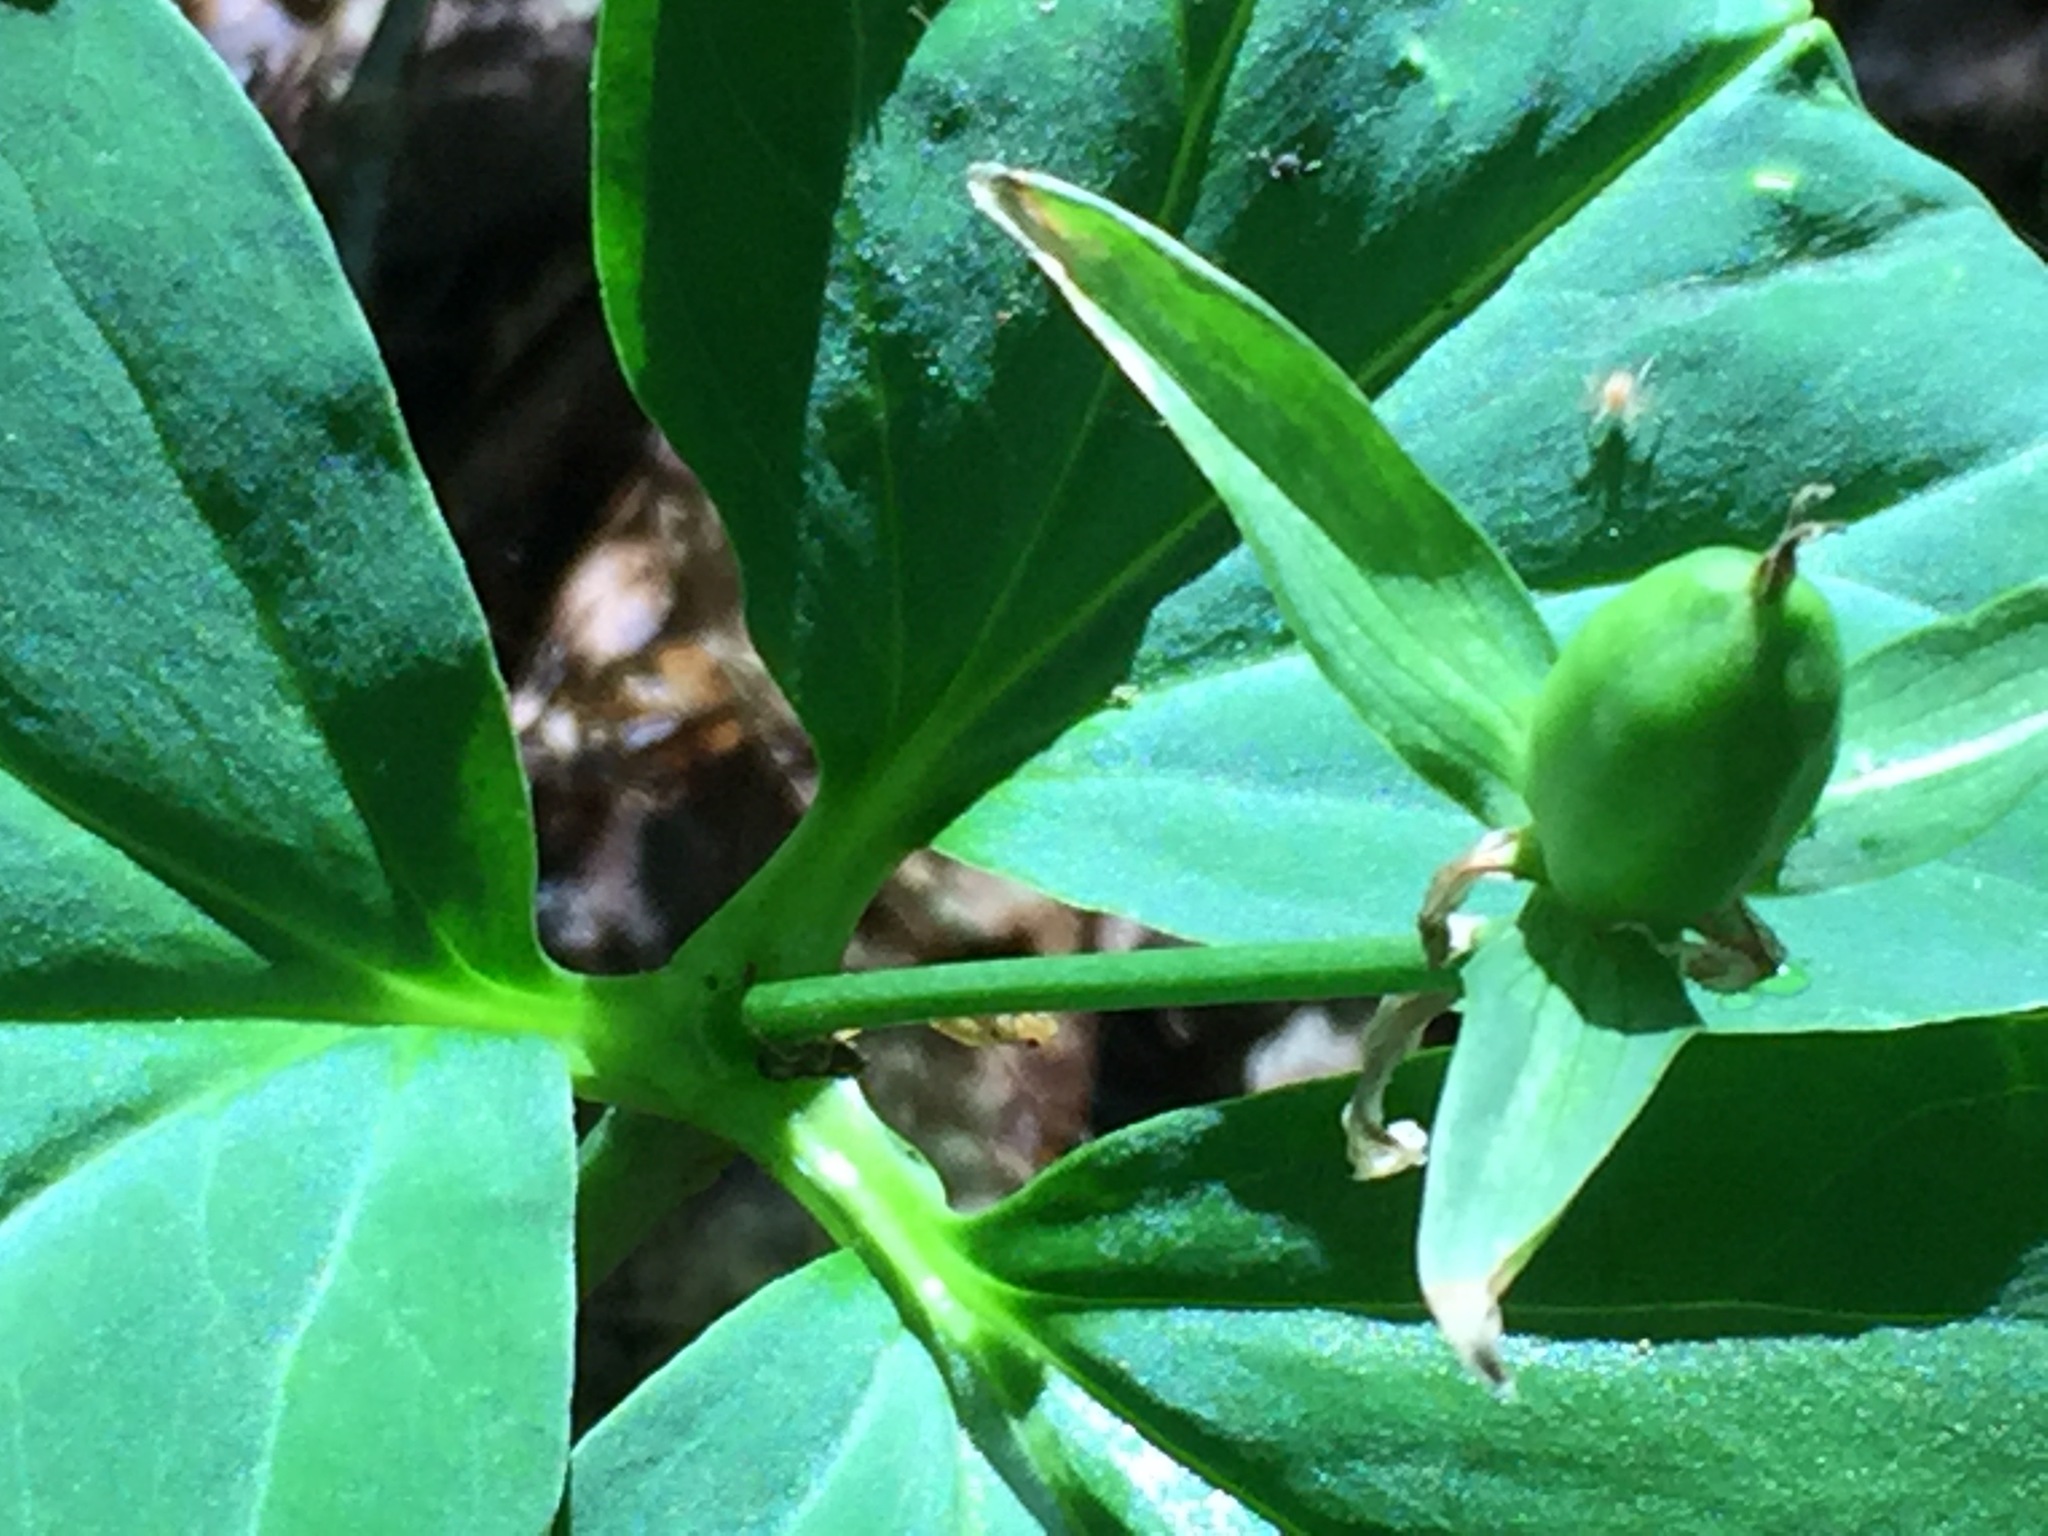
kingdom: Plantae
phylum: Tracheophyta
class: Liliopsida
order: Liliales
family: Melanthiaceae
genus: Trillium
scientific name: Trillium undulatum
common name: Paint trillium
